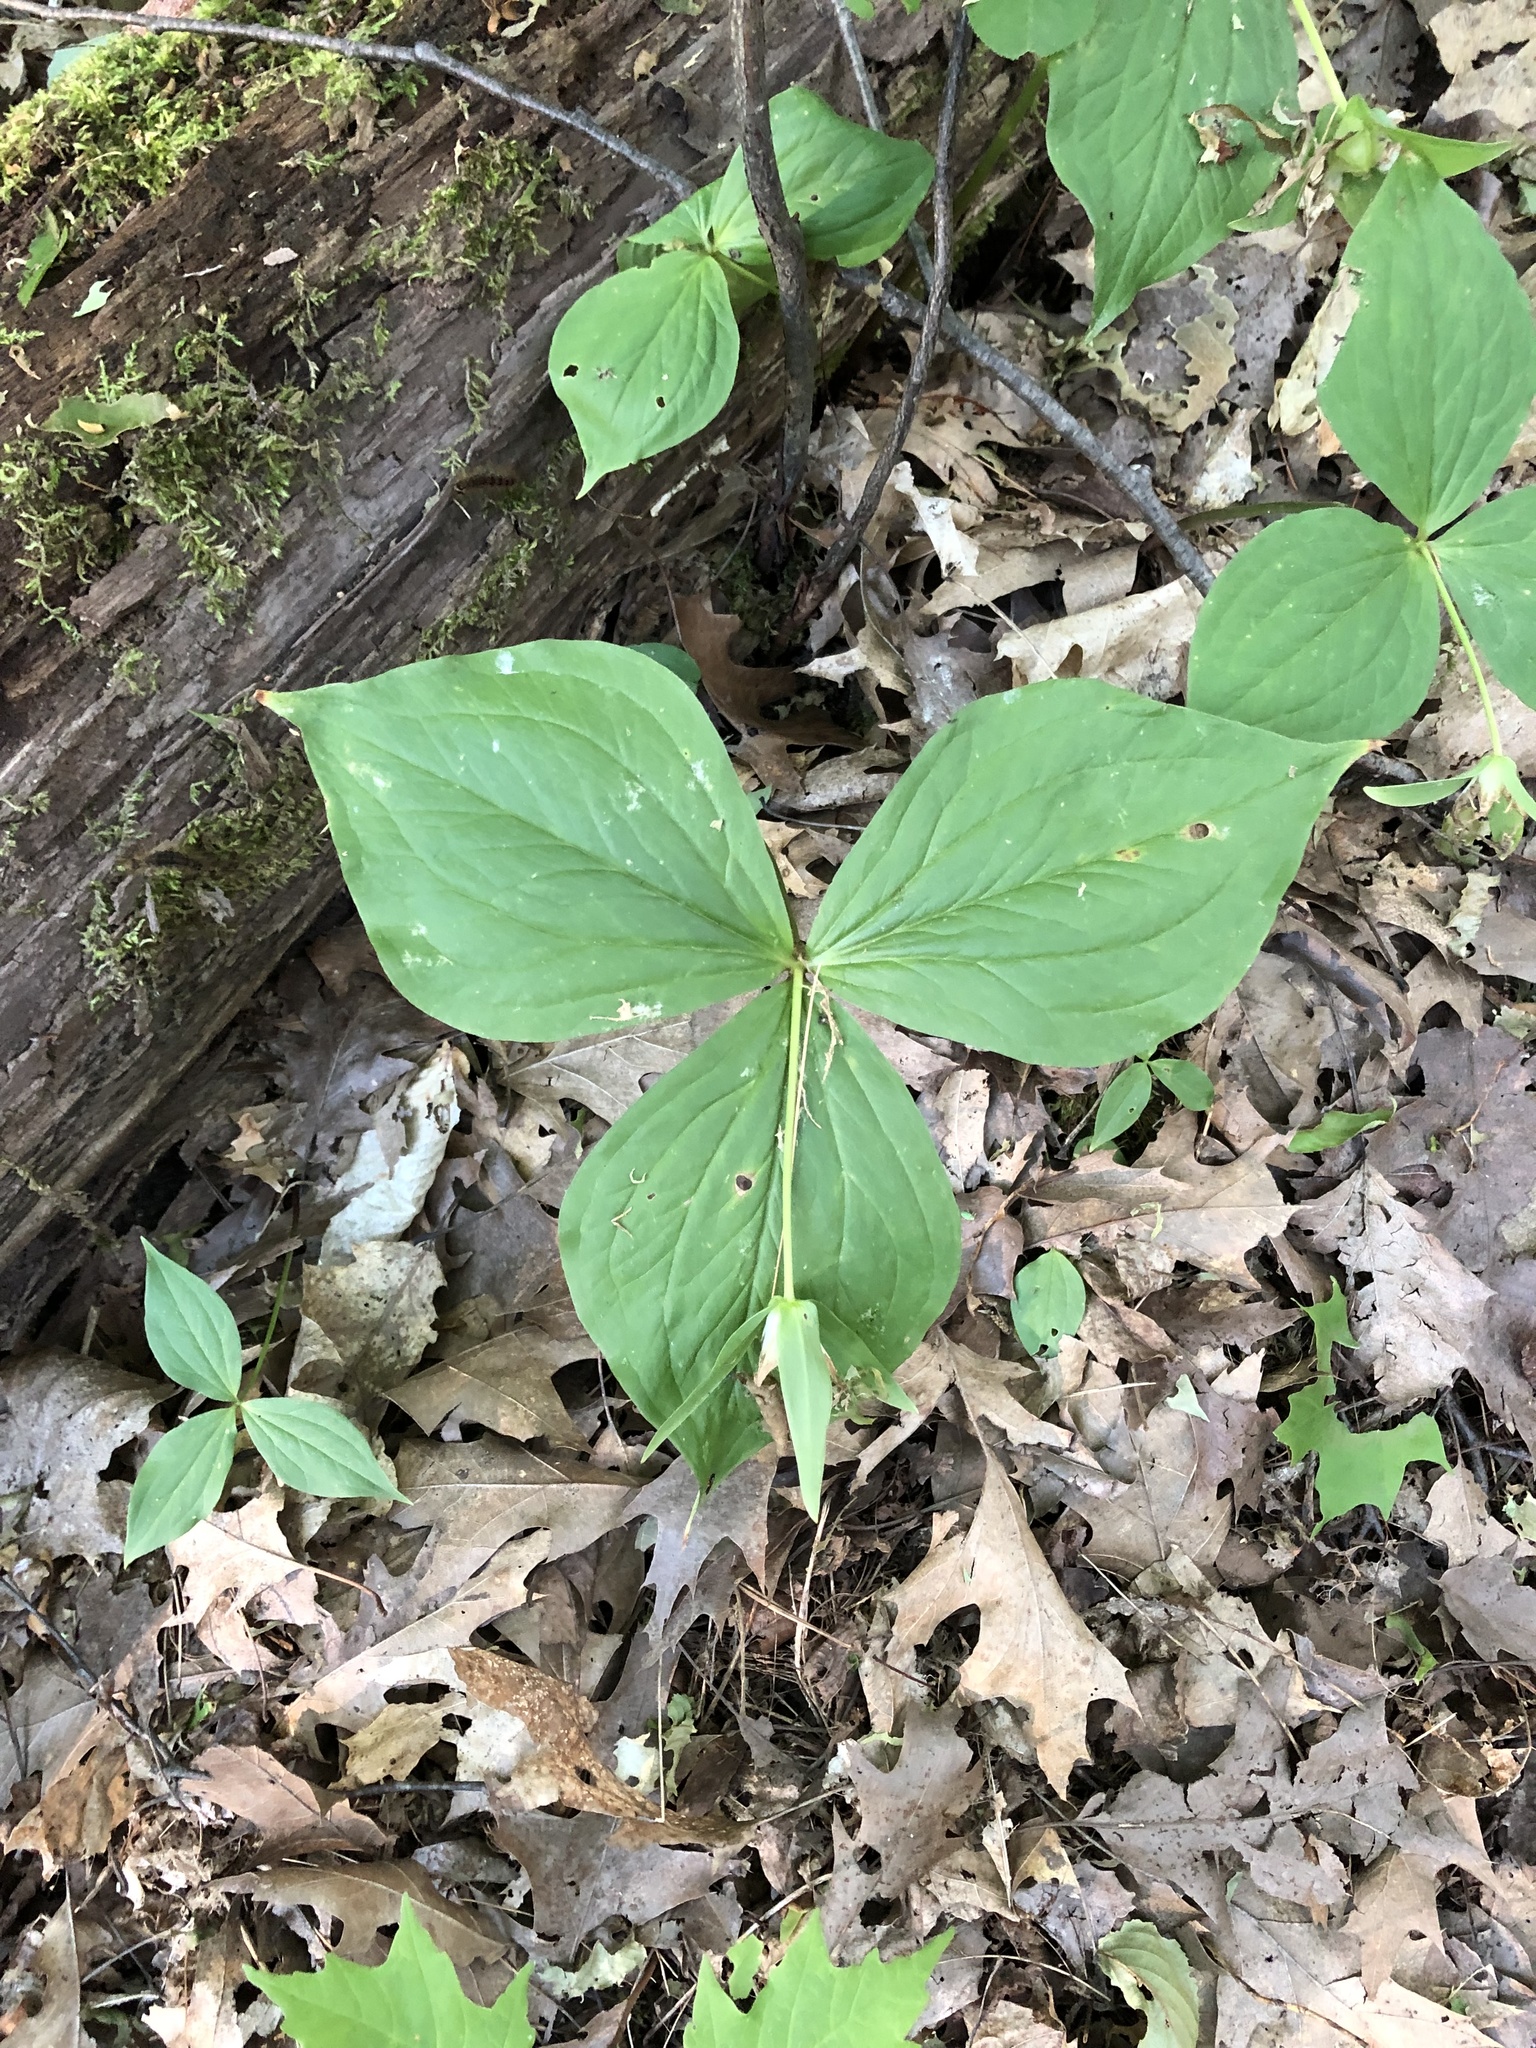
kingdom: Plantae
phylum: Tracheophyta
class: Liliopsida
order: Liliales
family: Melanthiaceae
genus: Trillium
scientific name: Trillium grandiflorum
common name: Great white trillium
